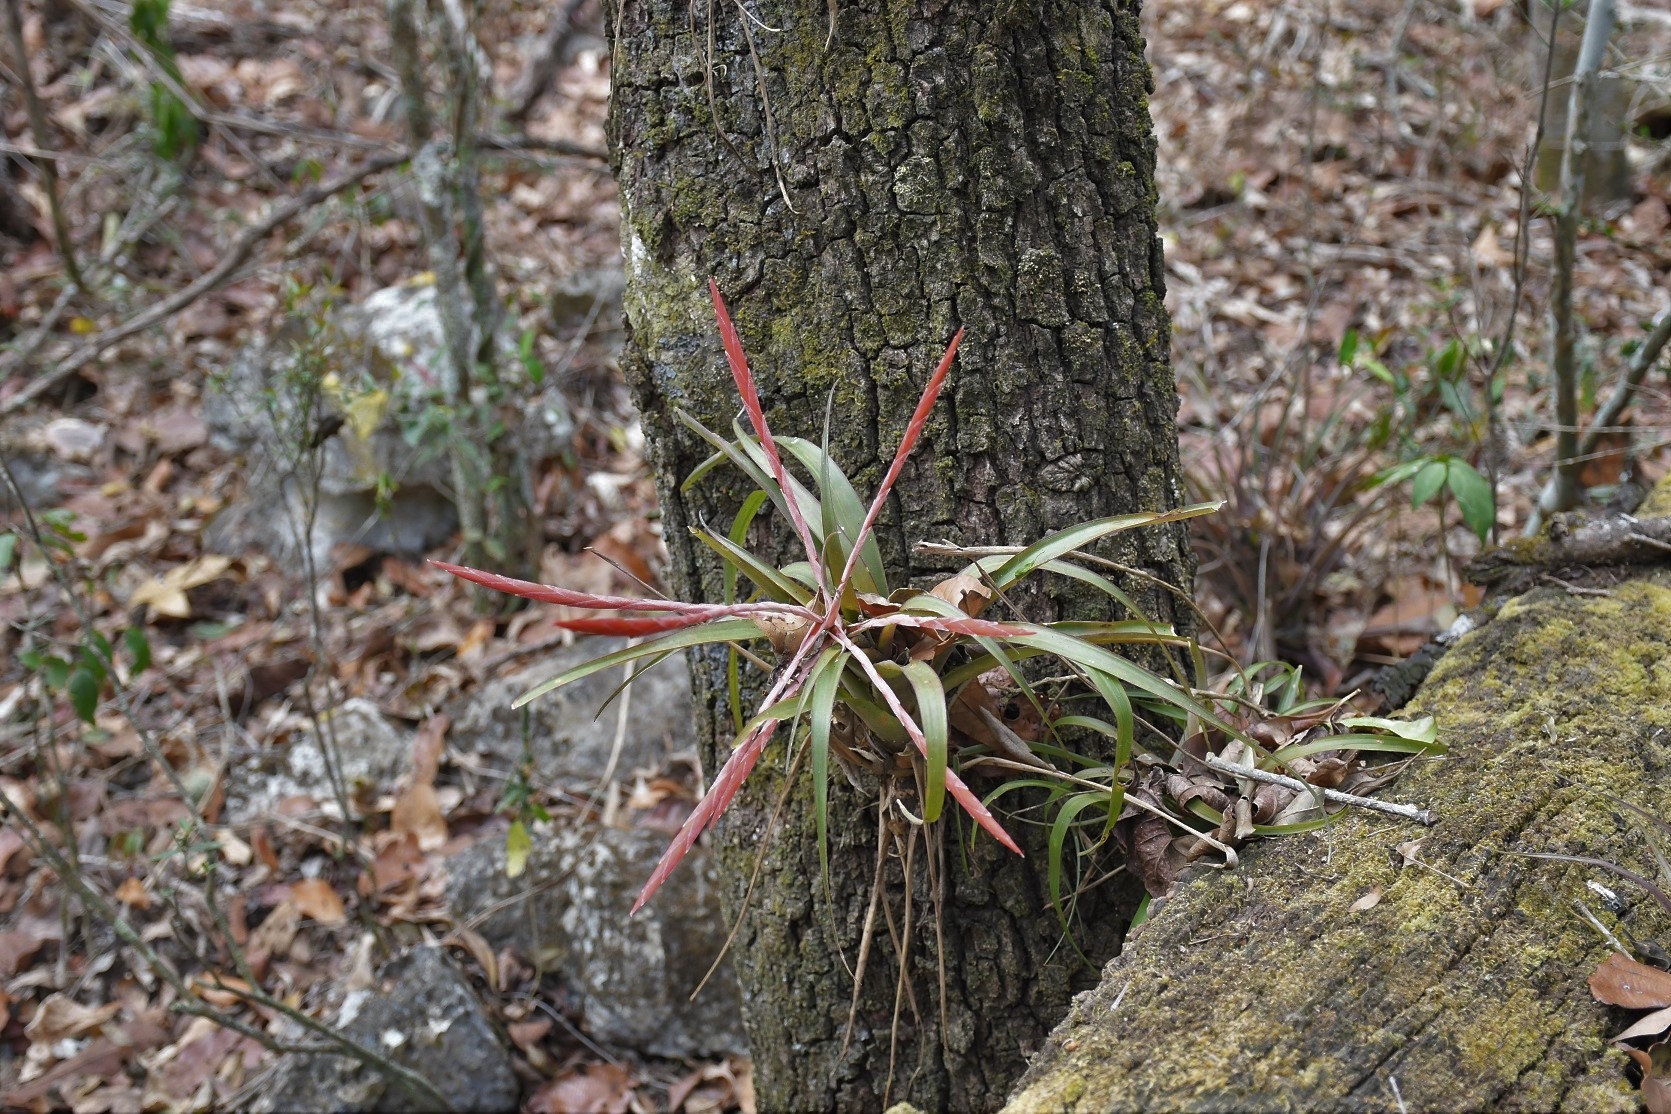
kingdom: Plantae
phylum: Tracheophyta
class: Liliopsida
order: Poales
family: Bromeliaceae
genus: Tillandsia
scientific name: Tillandsia flabellata
